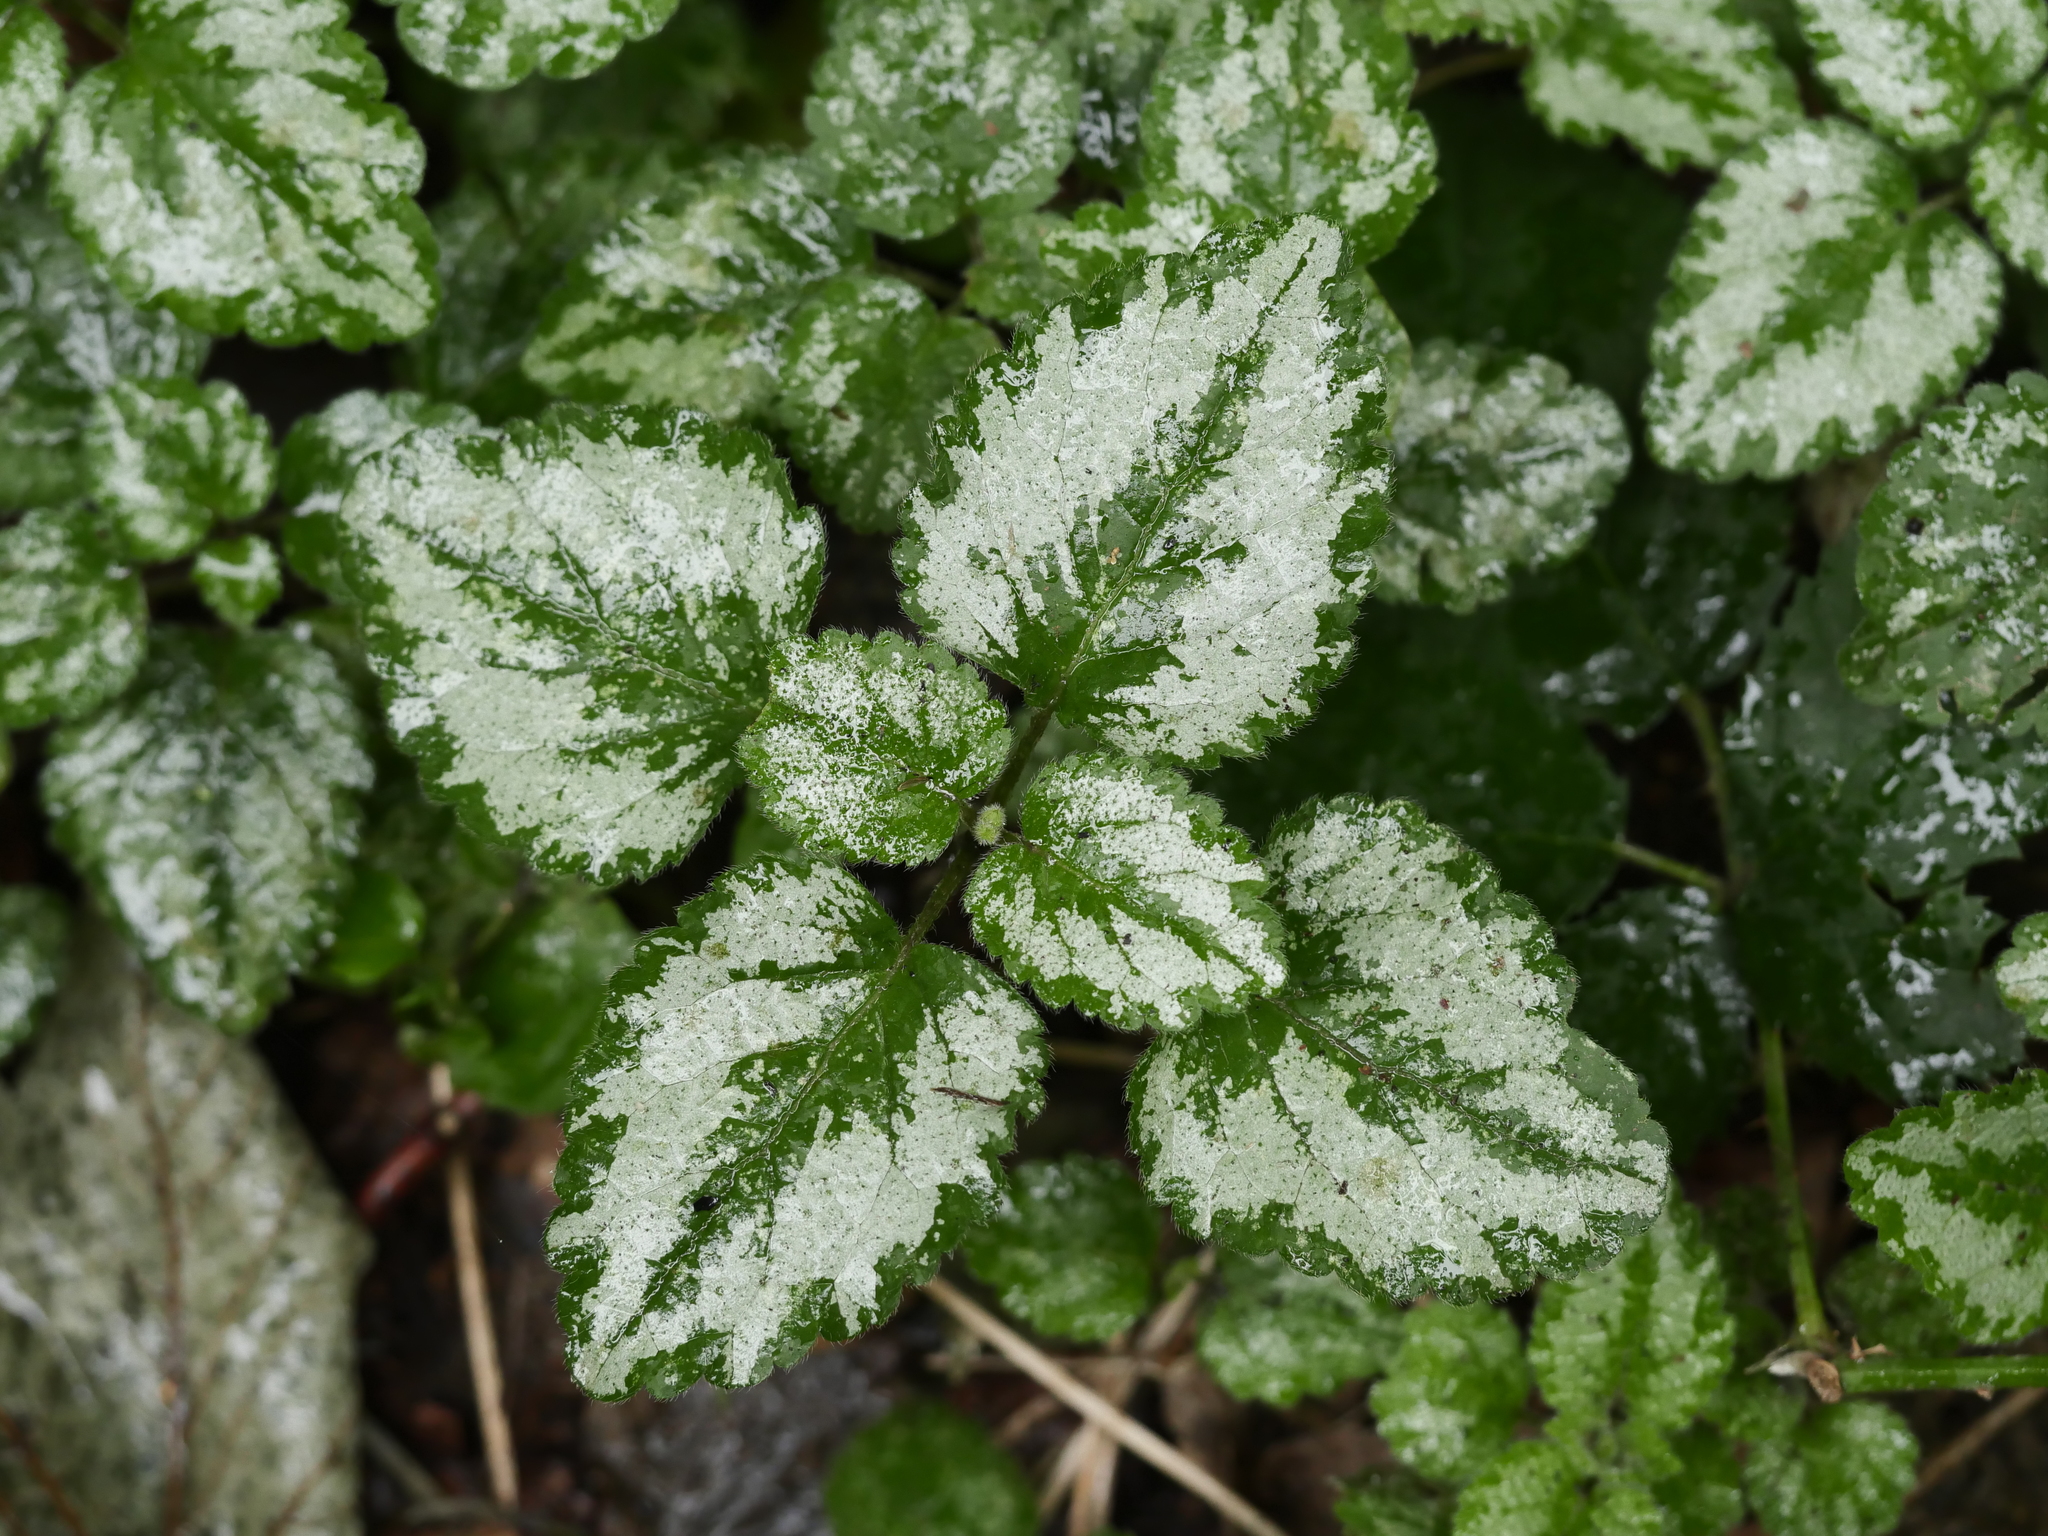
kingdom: Plantae
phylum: Tracheophyta
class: Magnoliopsida
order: Lamiales
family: Lamiaceae
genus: Lamium
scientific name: Lamium galeobdolon
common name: Yellow archangel
